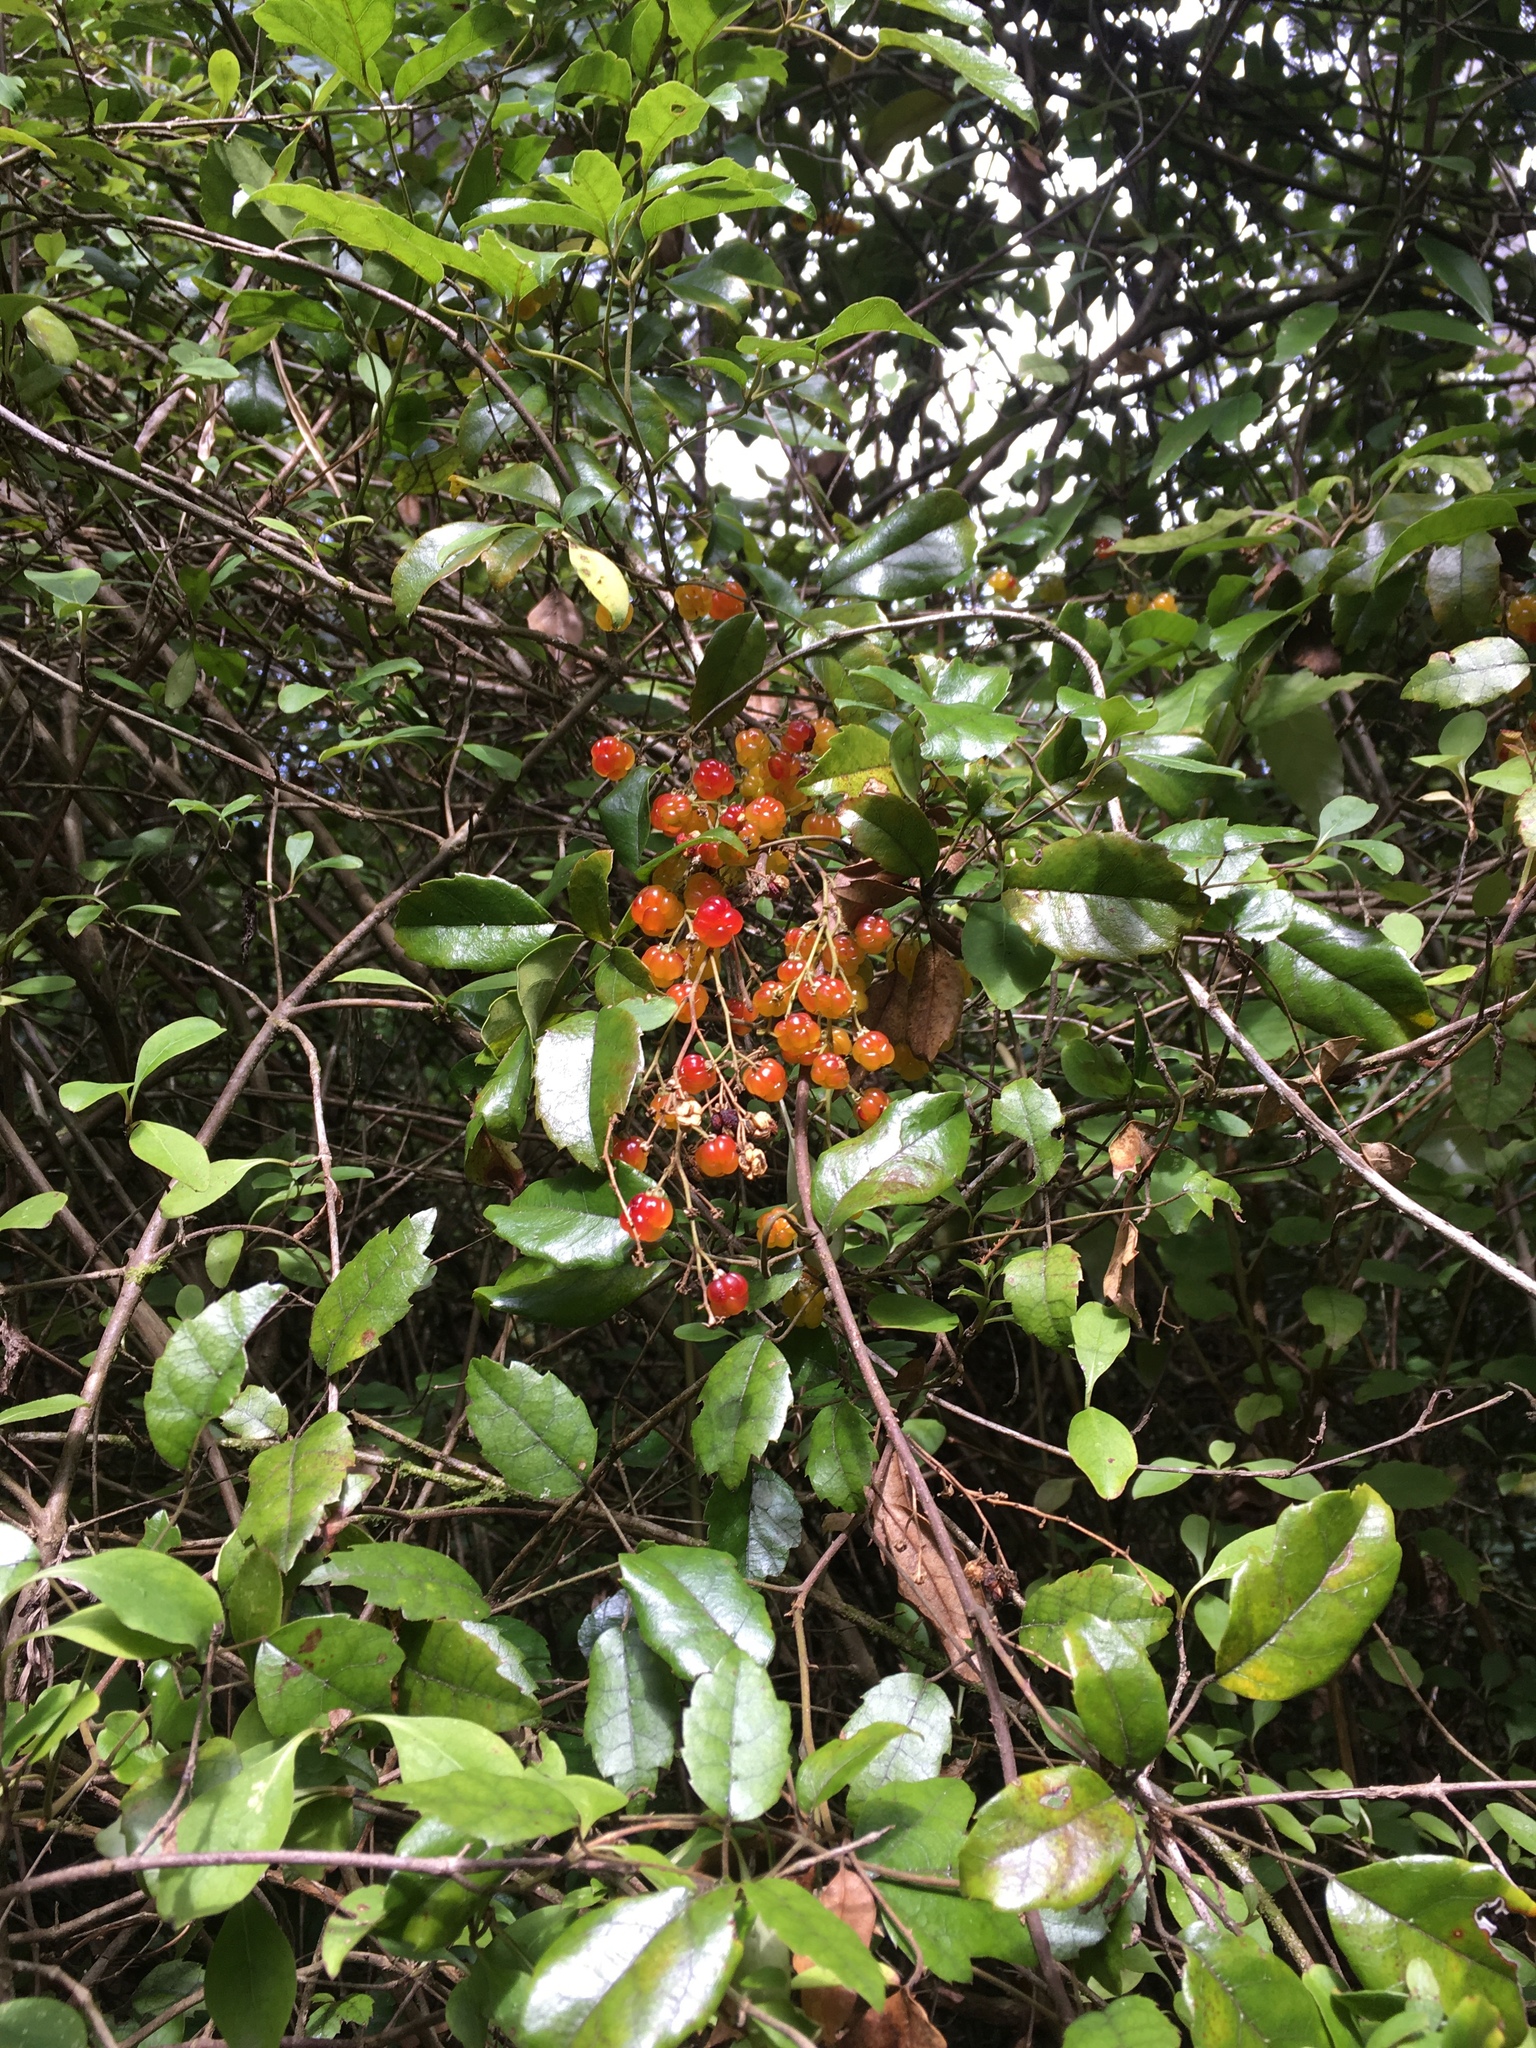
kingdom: Plantae
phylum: Tracheophyta
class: Magnoliopsida
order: Rosales
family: Rosaceae
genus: Rubus
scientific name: Rubus cissoides
